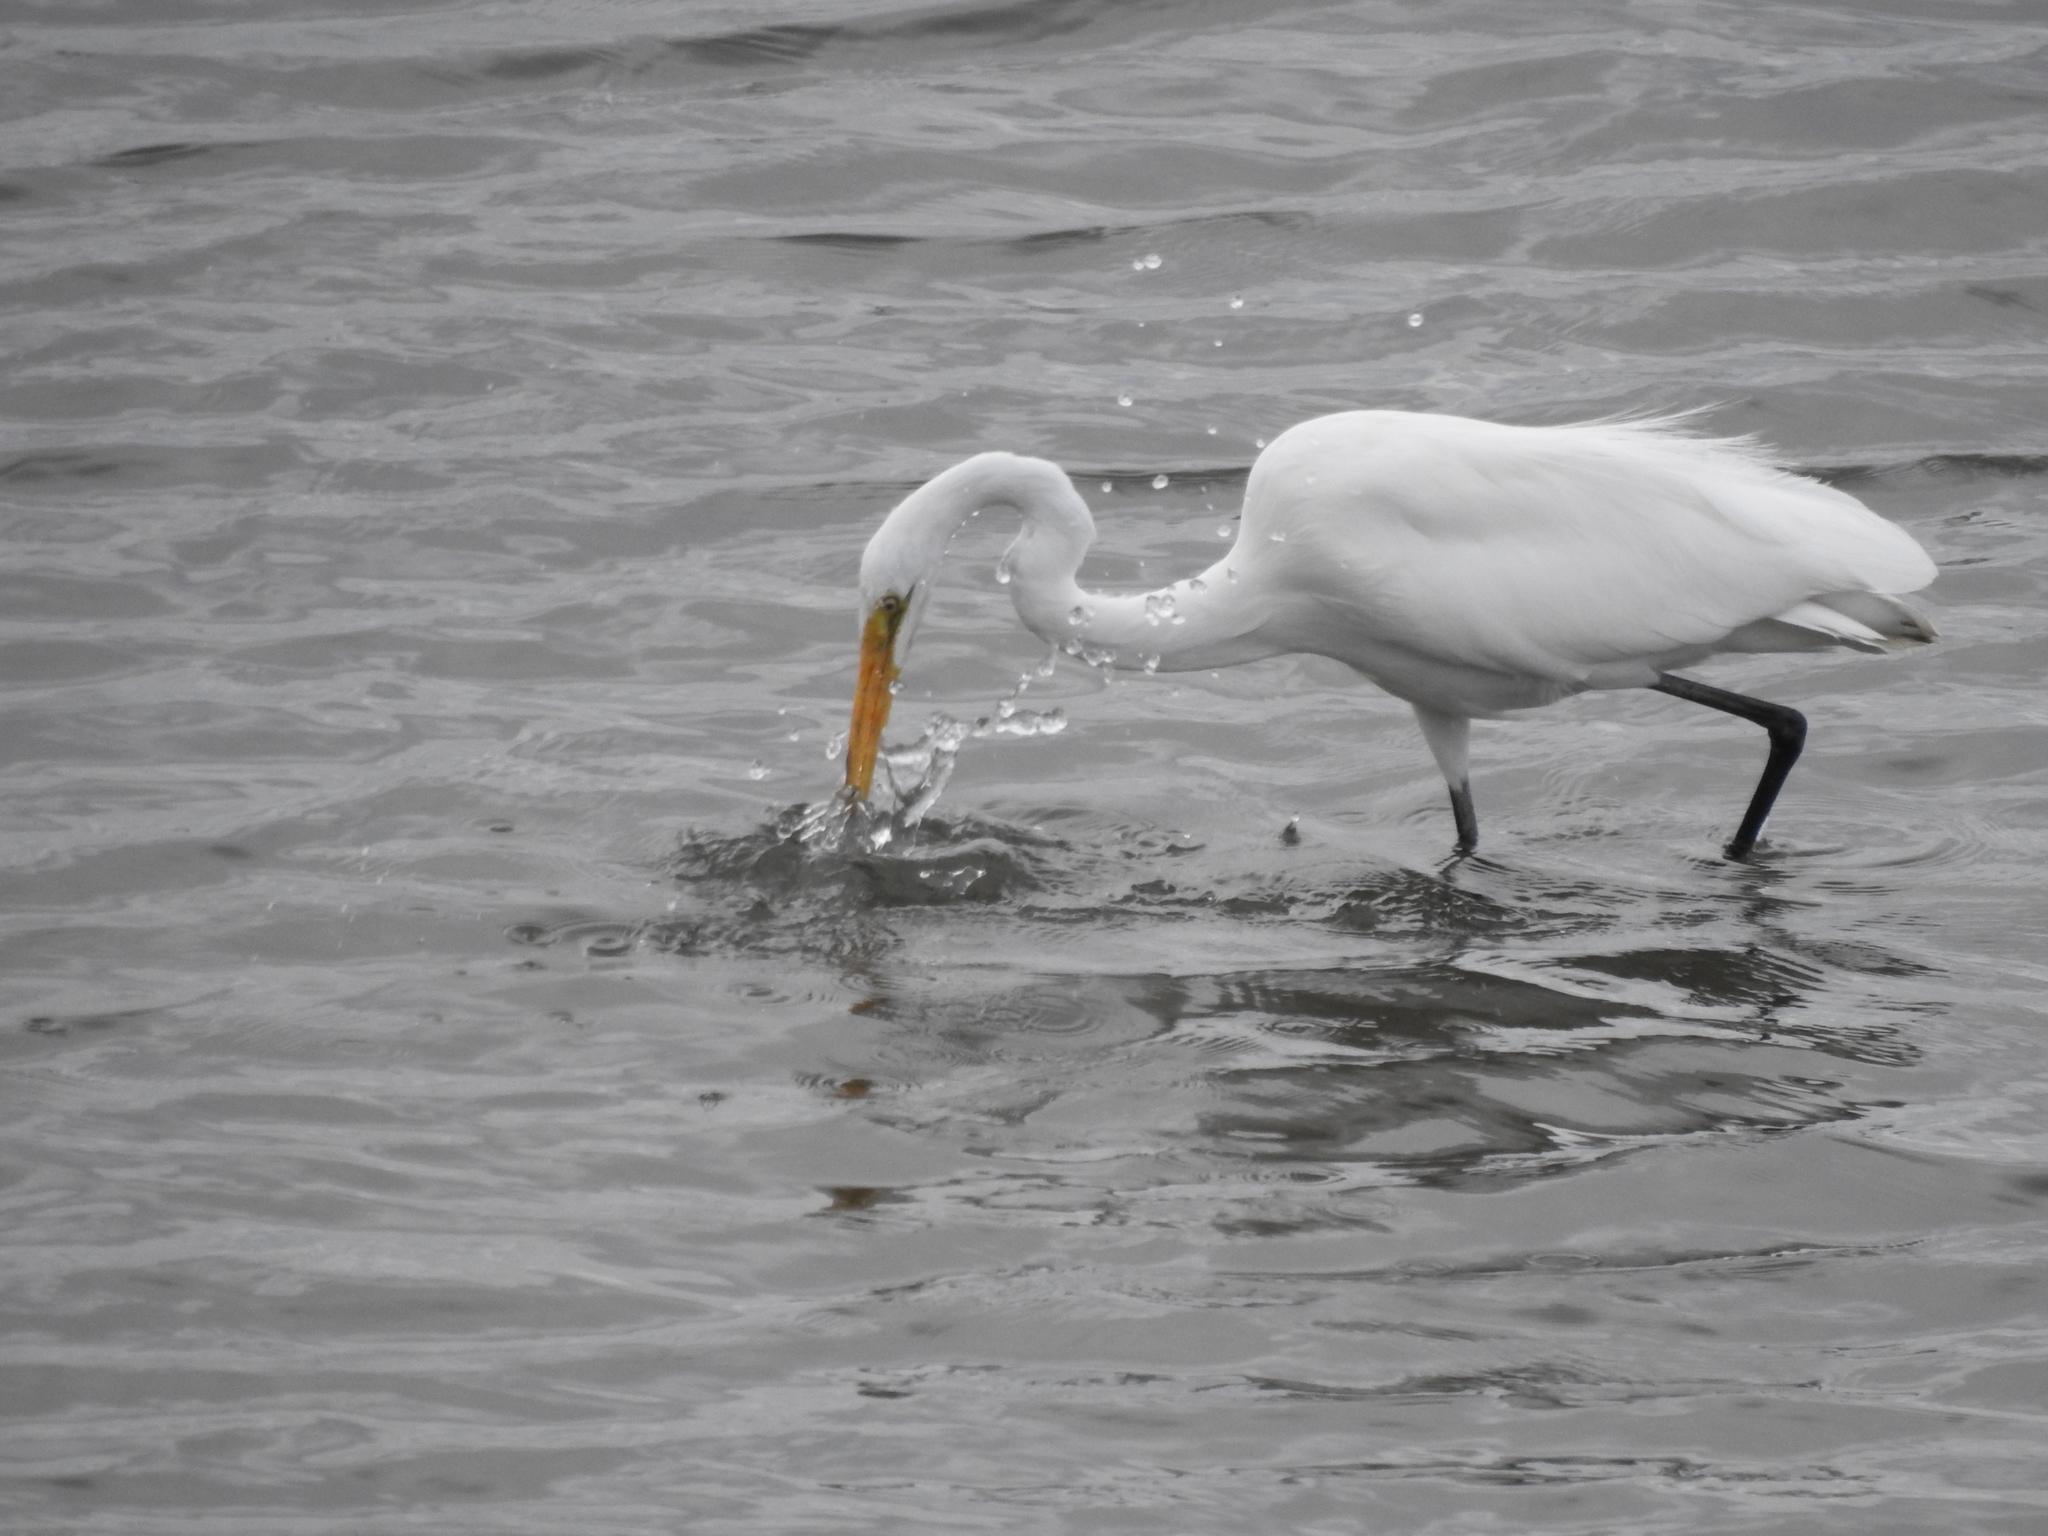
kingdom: Animalia
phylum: Chordata
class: Aves
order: Pelecaniformes
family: Ardeidae
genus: Ardea
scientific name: Ardea alba
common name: Great egret
